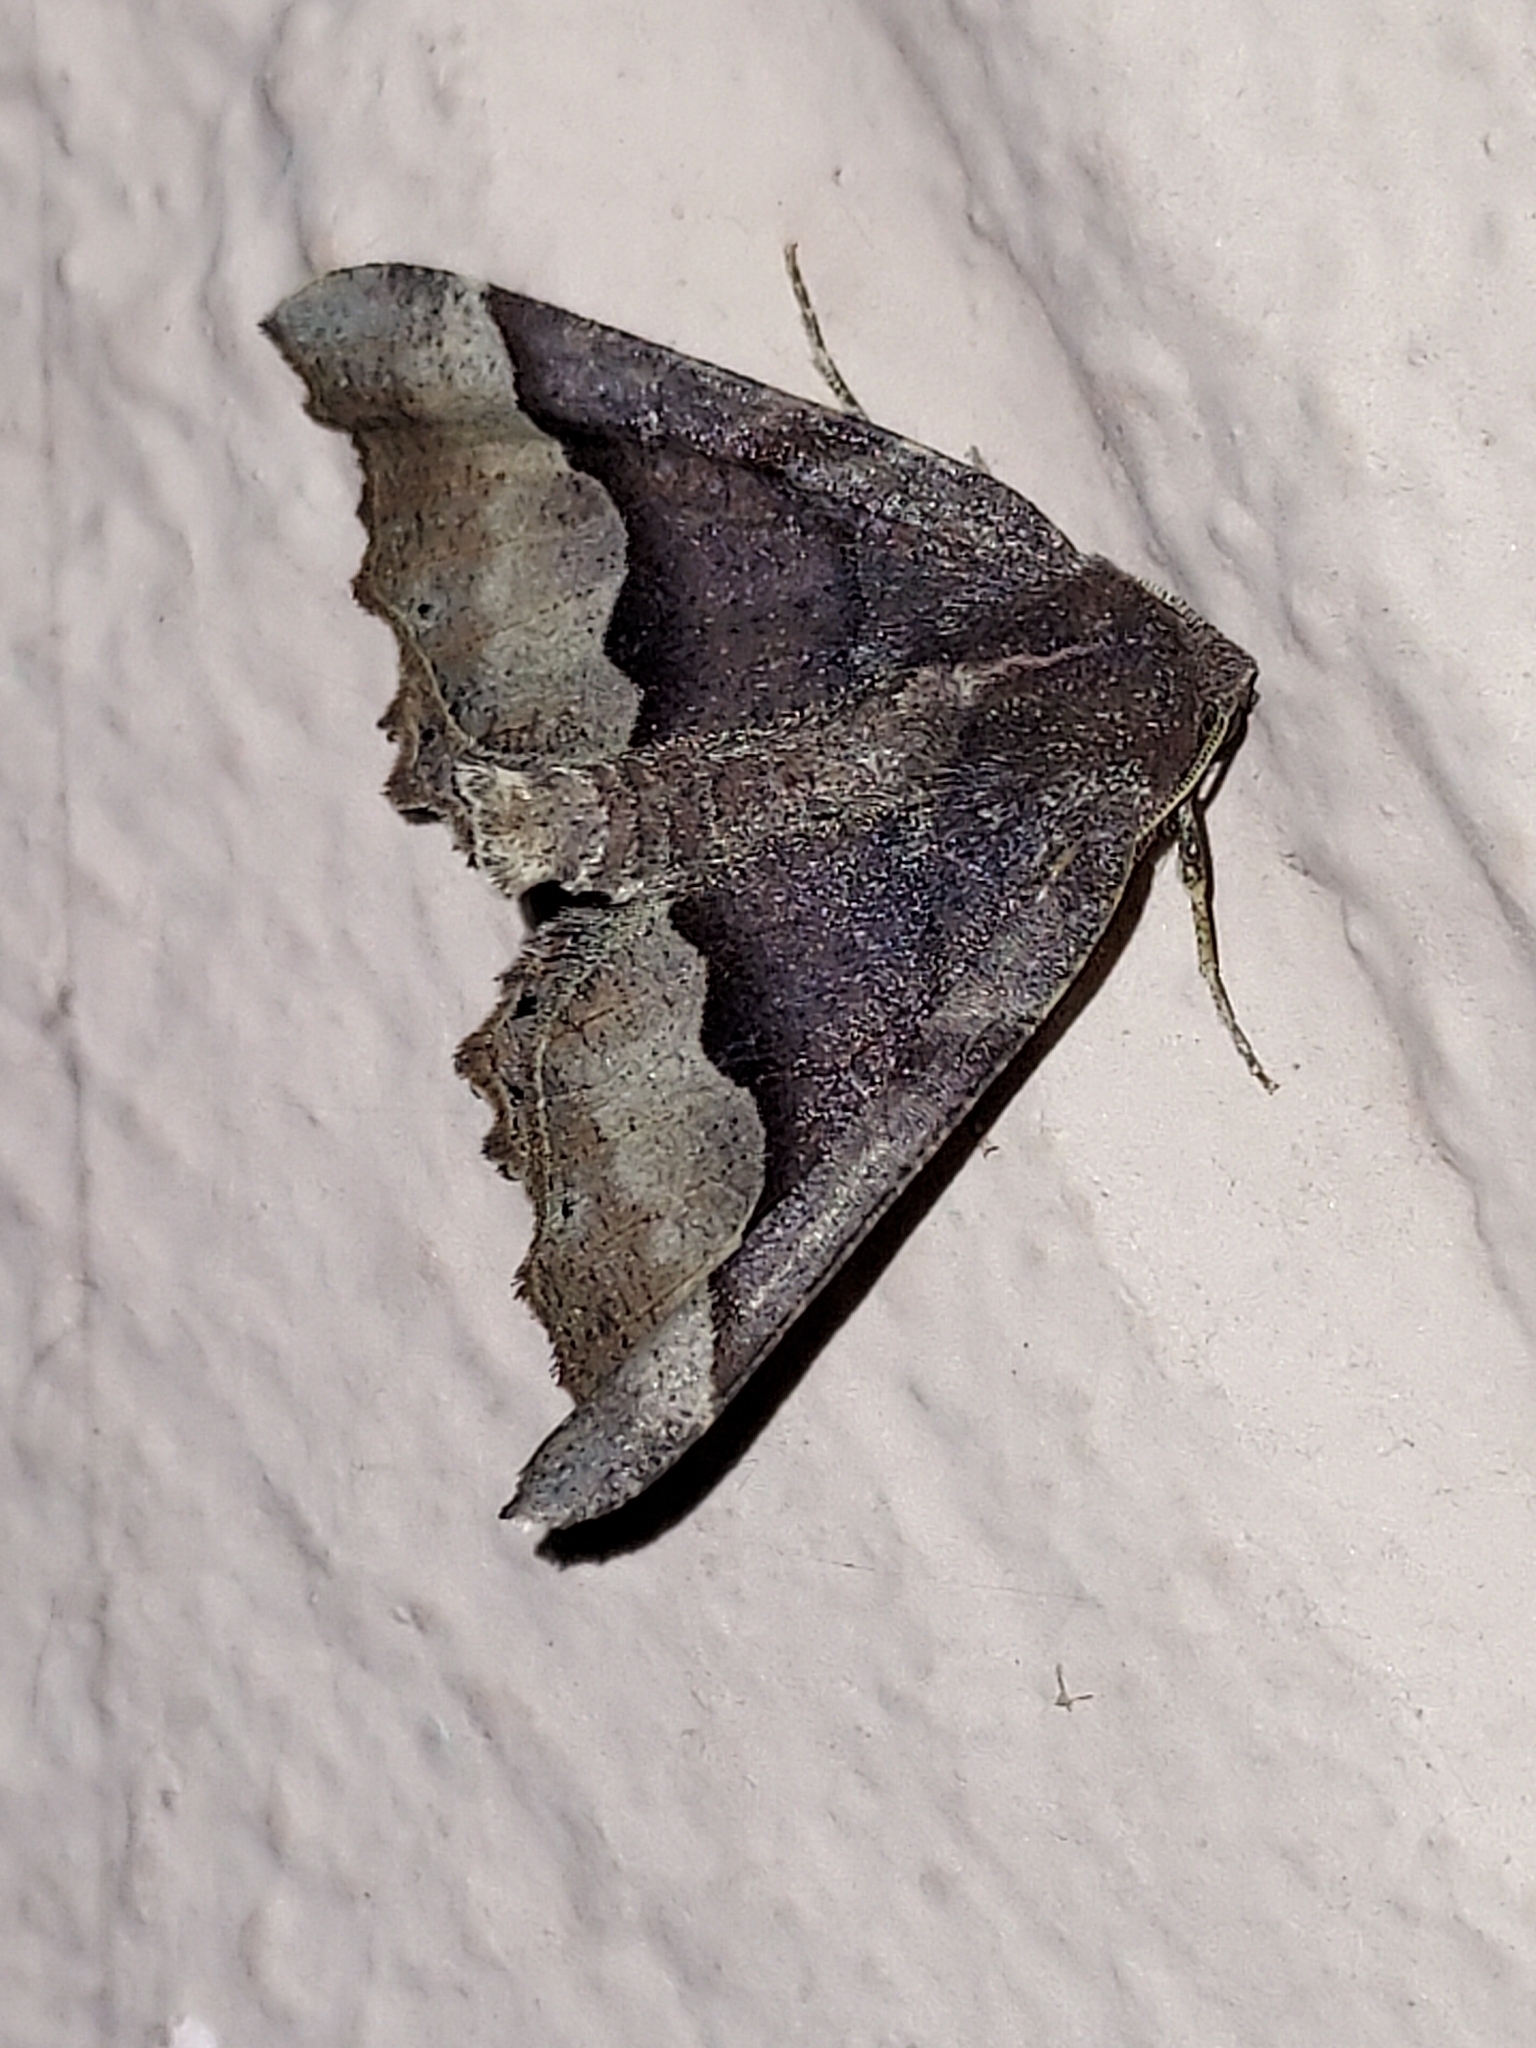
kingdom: Animalia
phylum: Arthropoda
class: Insecta
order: Lepidoptera
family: Geometridae
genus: Pero
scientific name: Pero honestaria
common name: Honest pero
